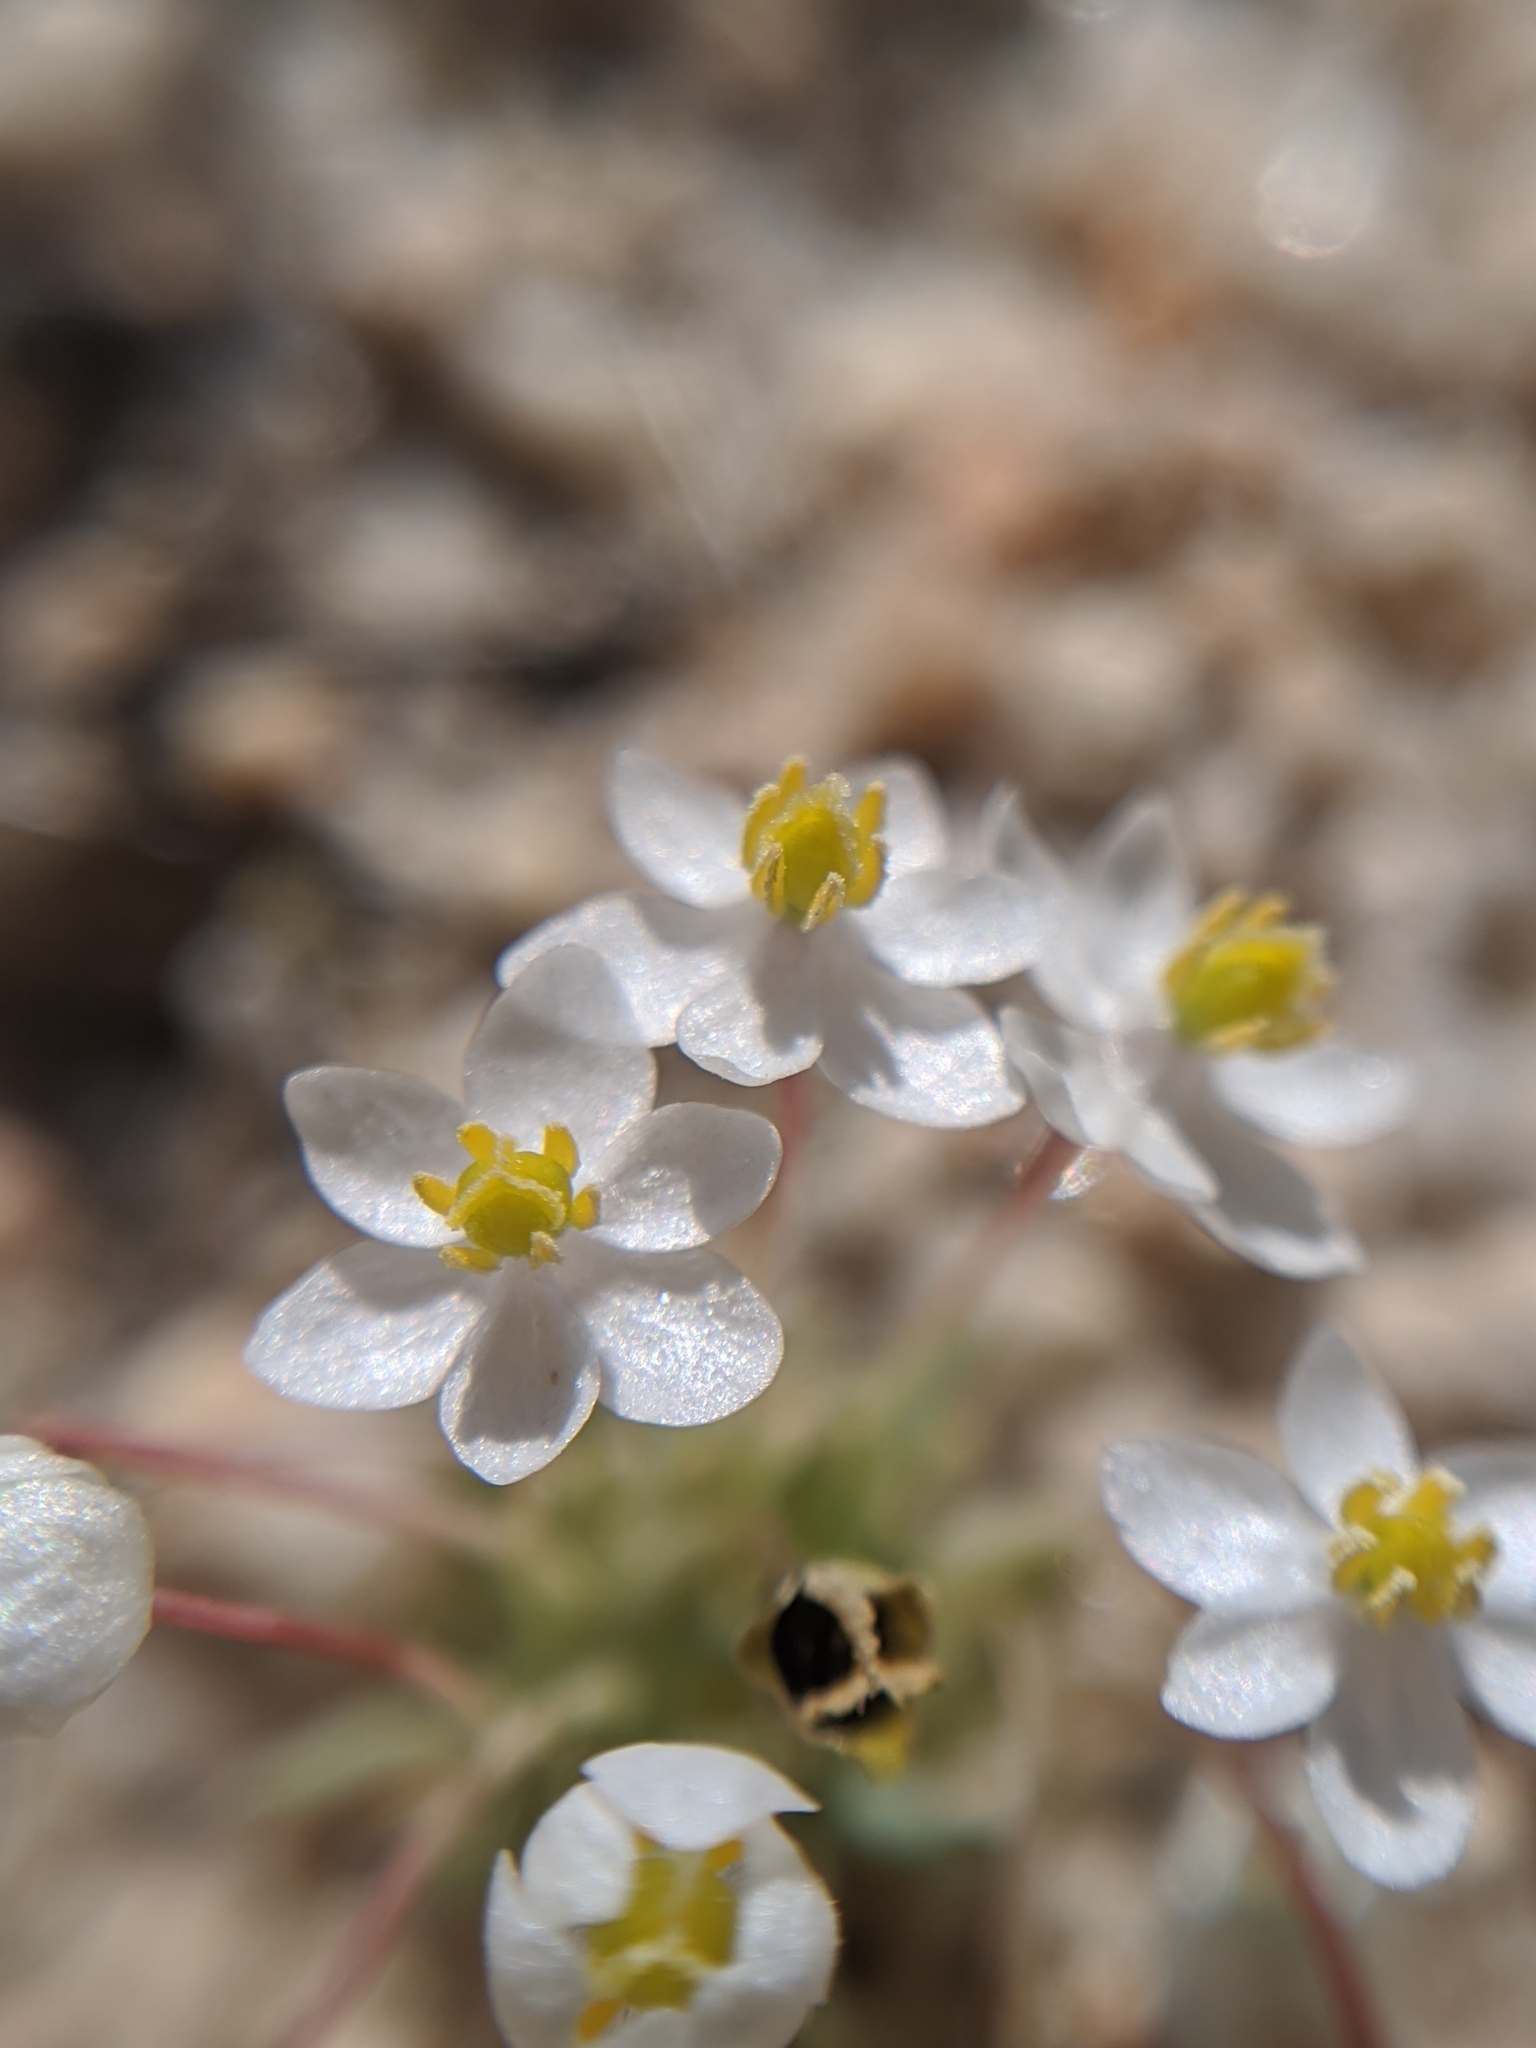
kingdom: Plantae
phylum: Tracheophyta
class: Magnoliopsida
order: Ranunculales
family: Papaveraceae
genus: Canbya
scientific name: Canbya candida
